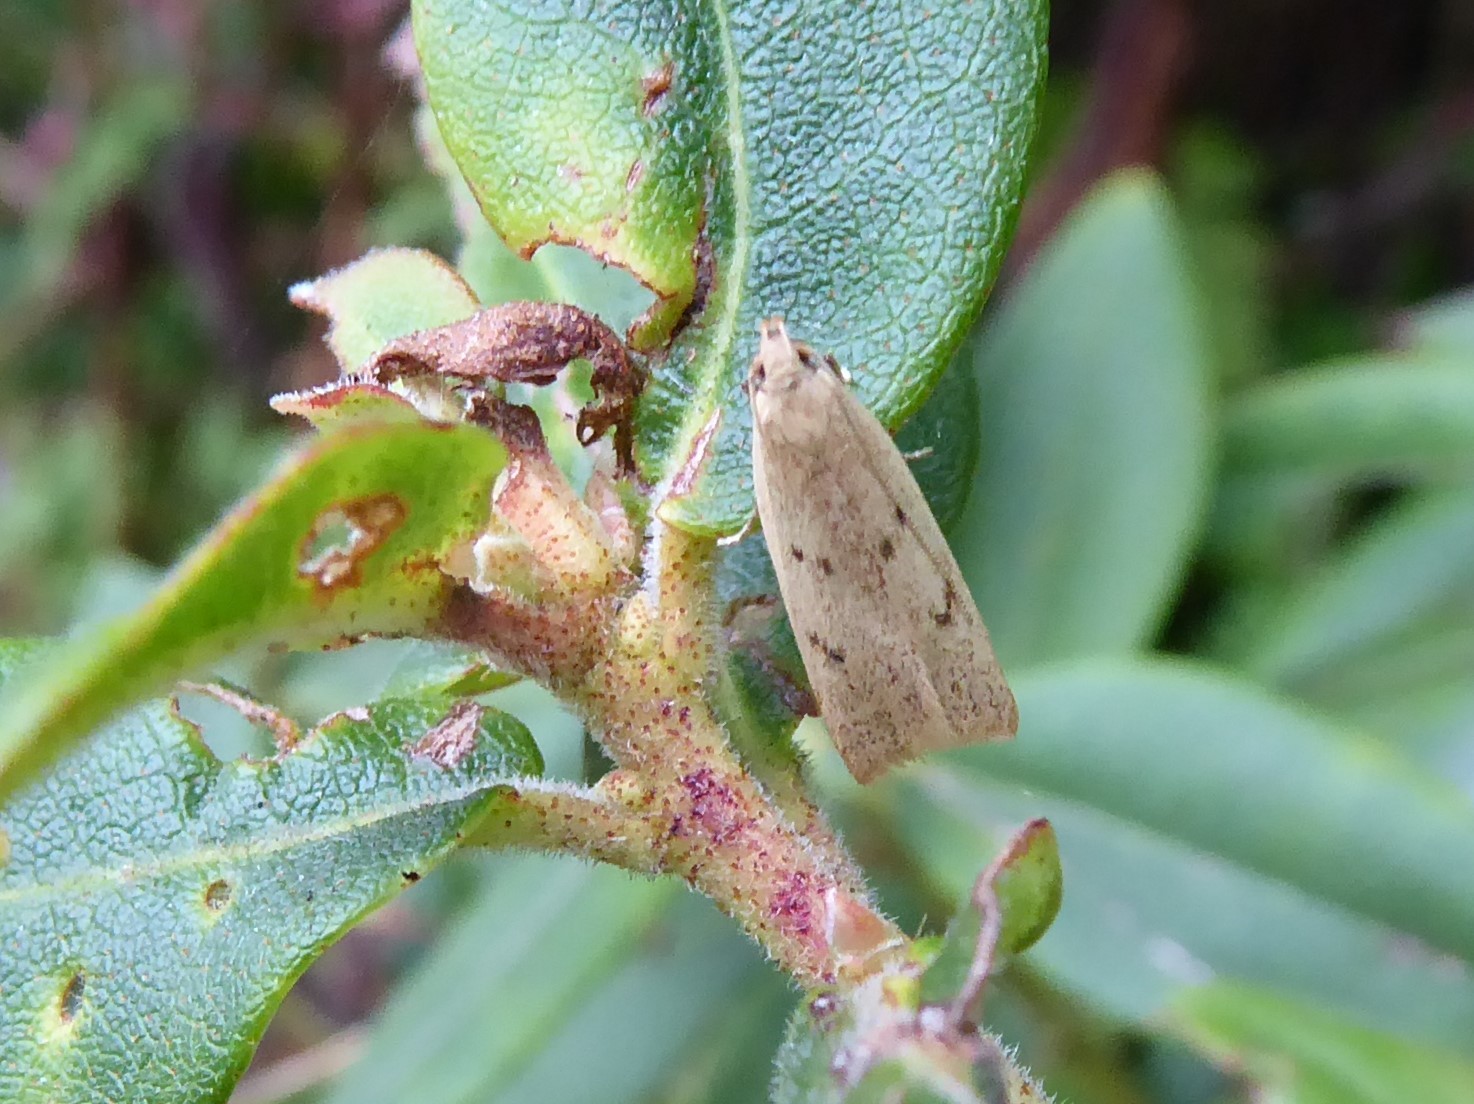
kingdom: Animalia
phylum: Arthropoda
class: Insecta
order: Lepidoptera
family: Oecophoridae
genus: Gymnobathra
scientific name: Gymnobathra sarcoxantha
